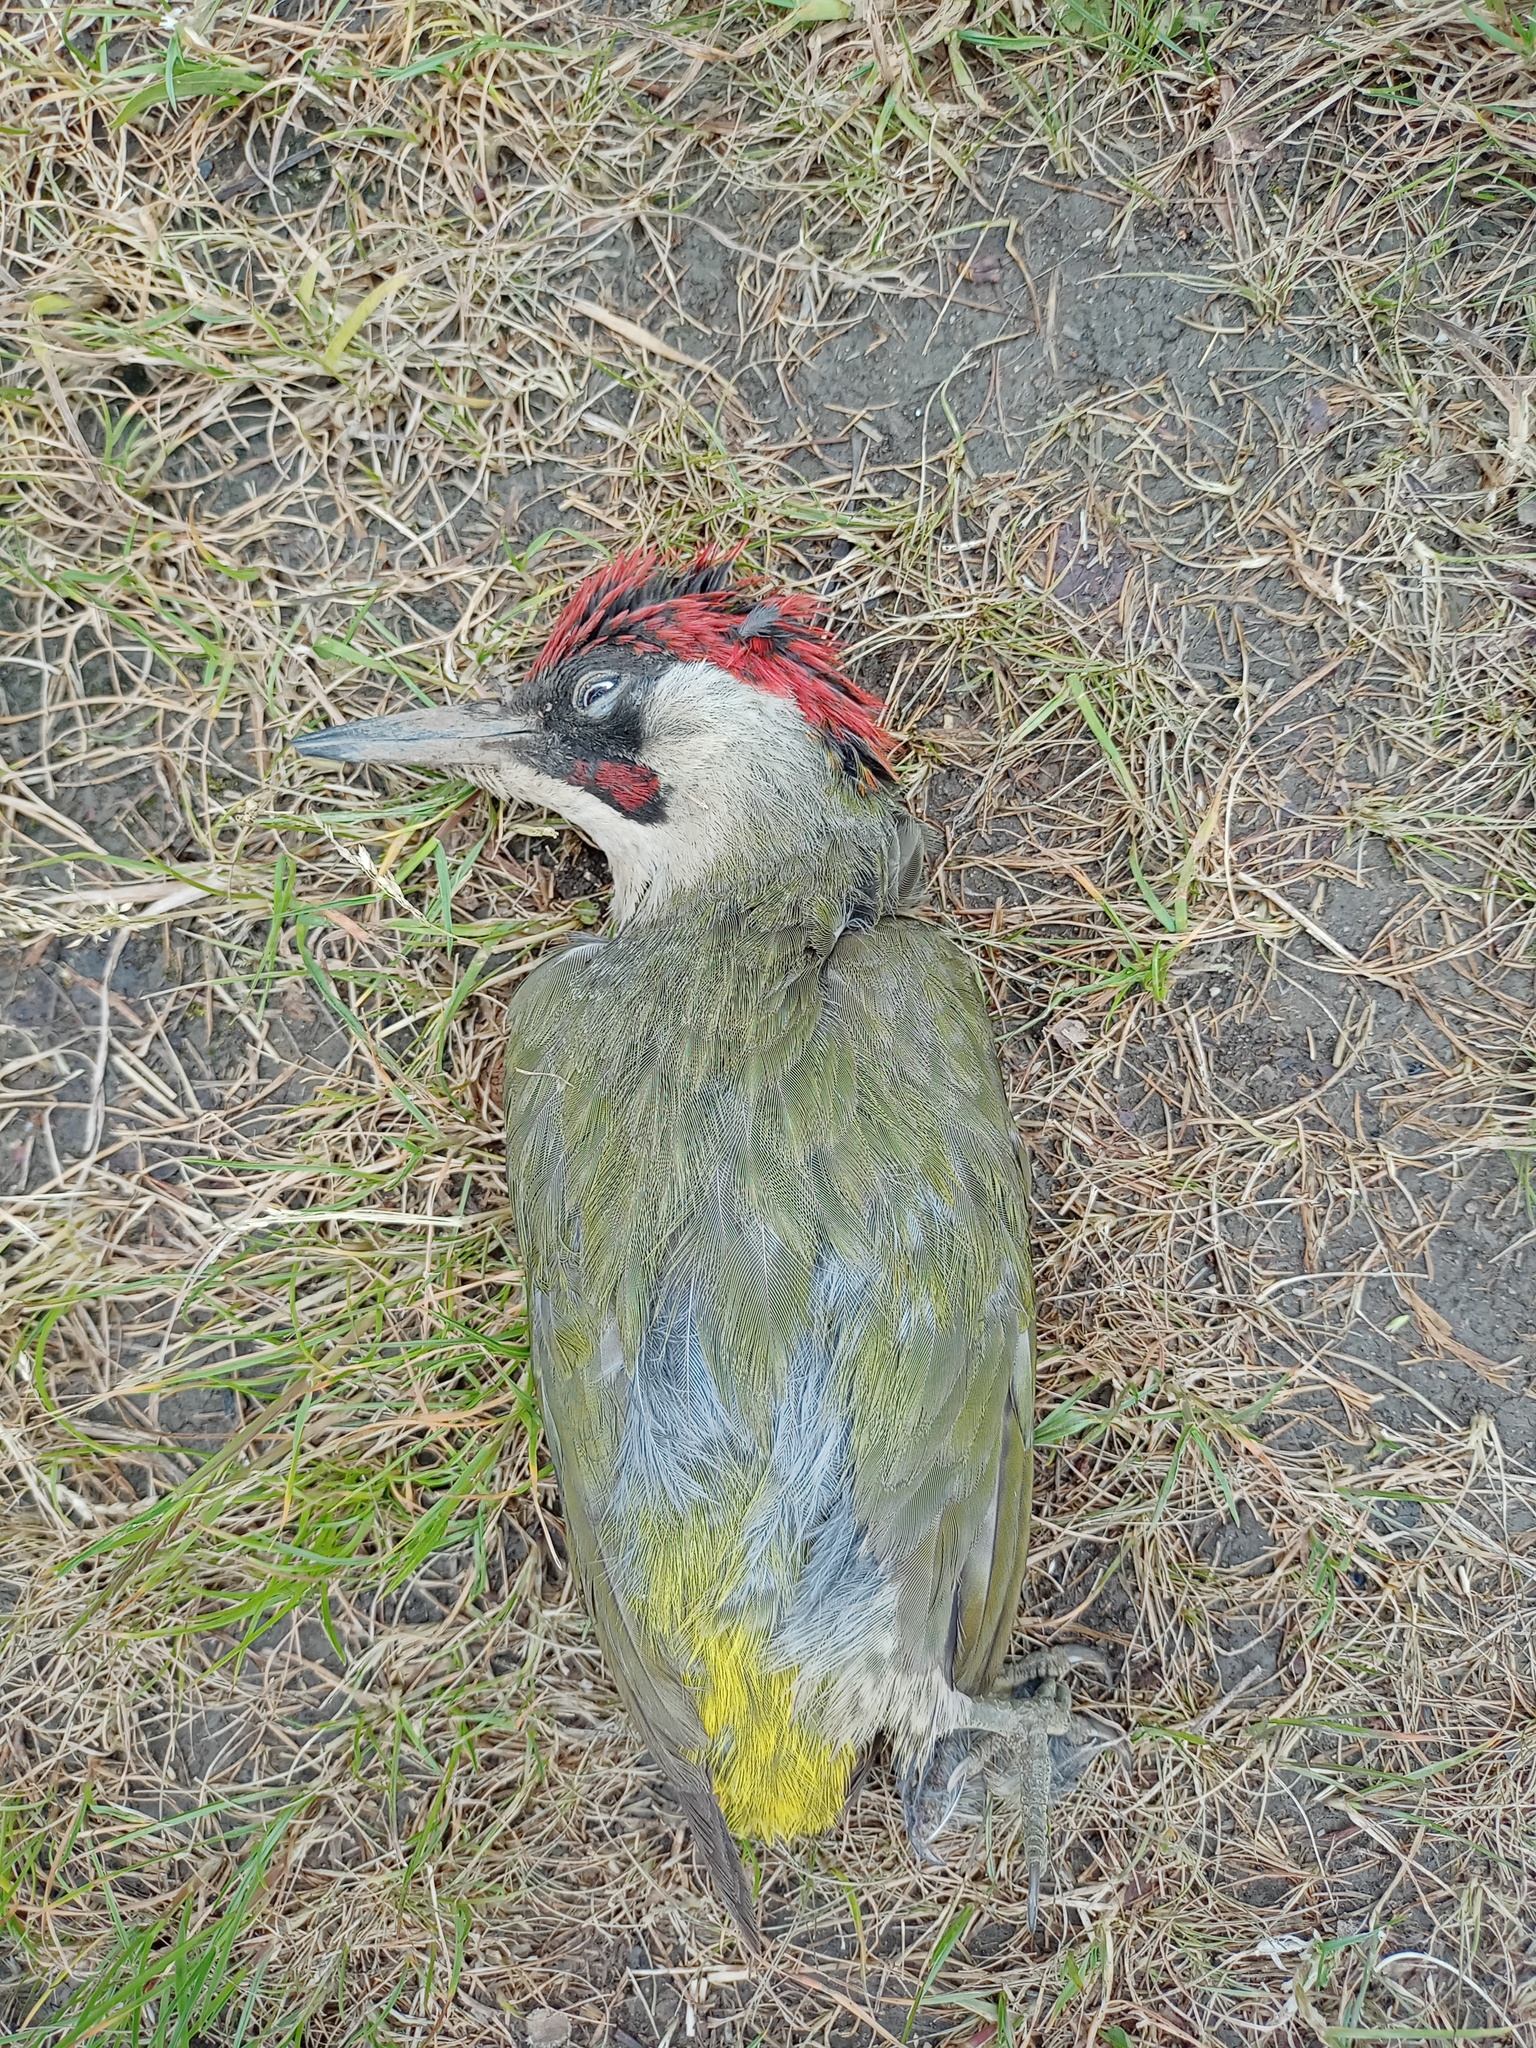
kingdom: Animalia
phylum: Chordata
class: Aves
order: Piciformes
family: Picidae
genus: Picus
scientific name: Picus viridis
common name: European green woodpecker
